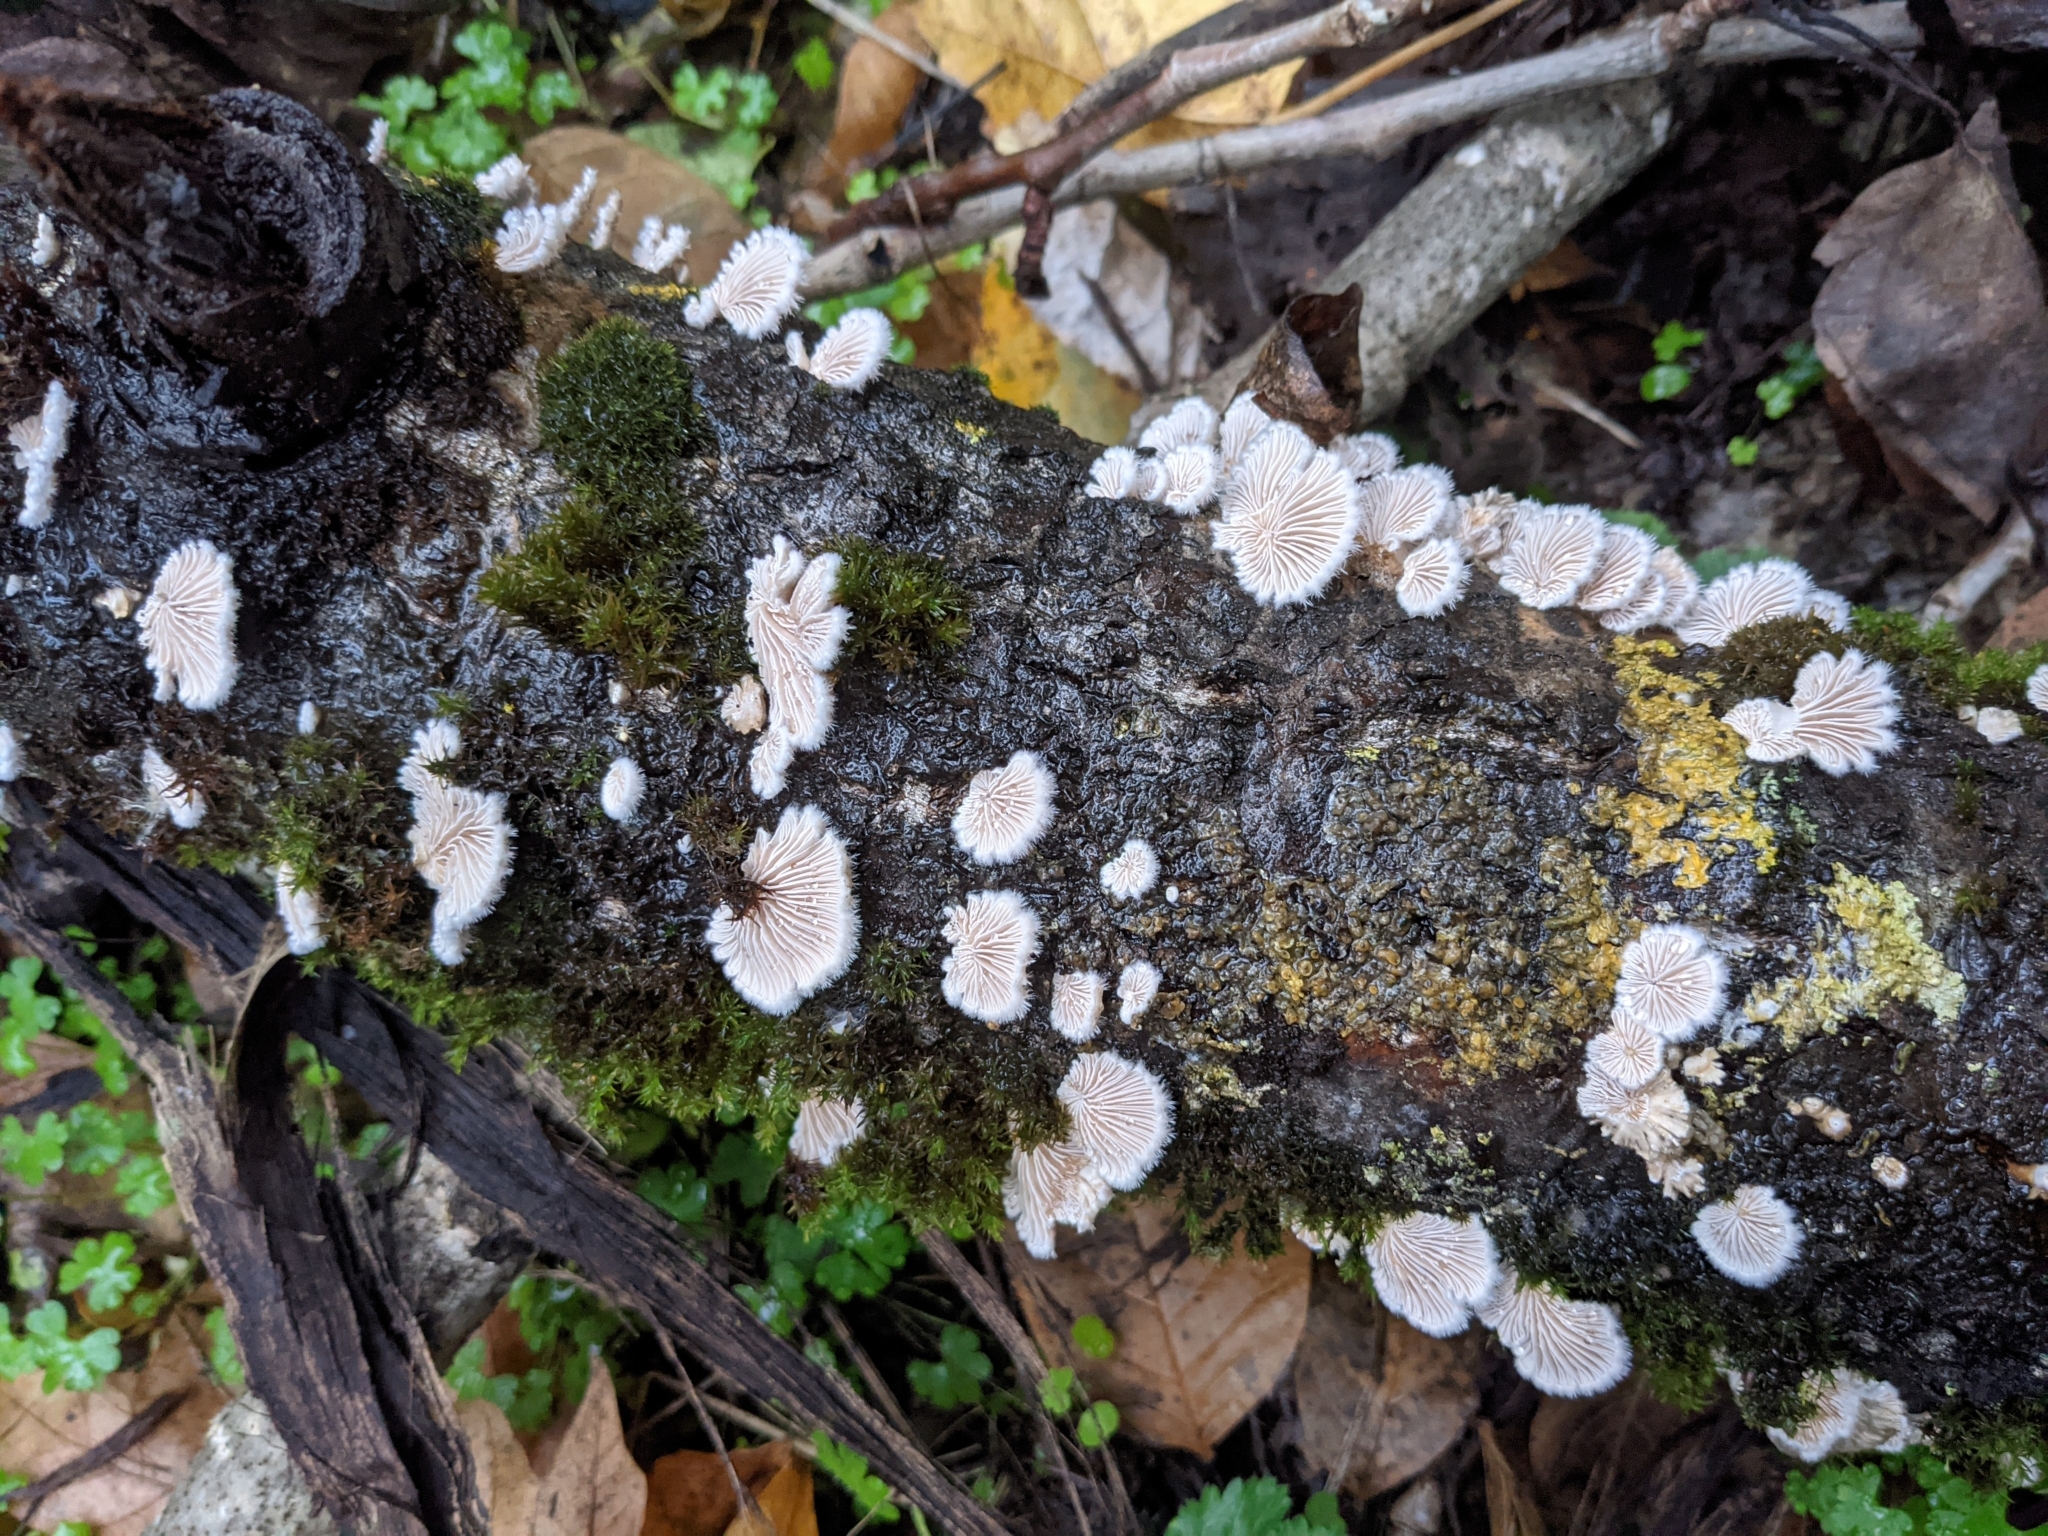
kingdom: Fungi
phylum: Basidiomycota
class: Agaricomycetes
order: Agaricales
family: Schizophyllaceae
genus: Schizophyllum
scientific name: Schizophyllum commune
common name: Common porecrust
